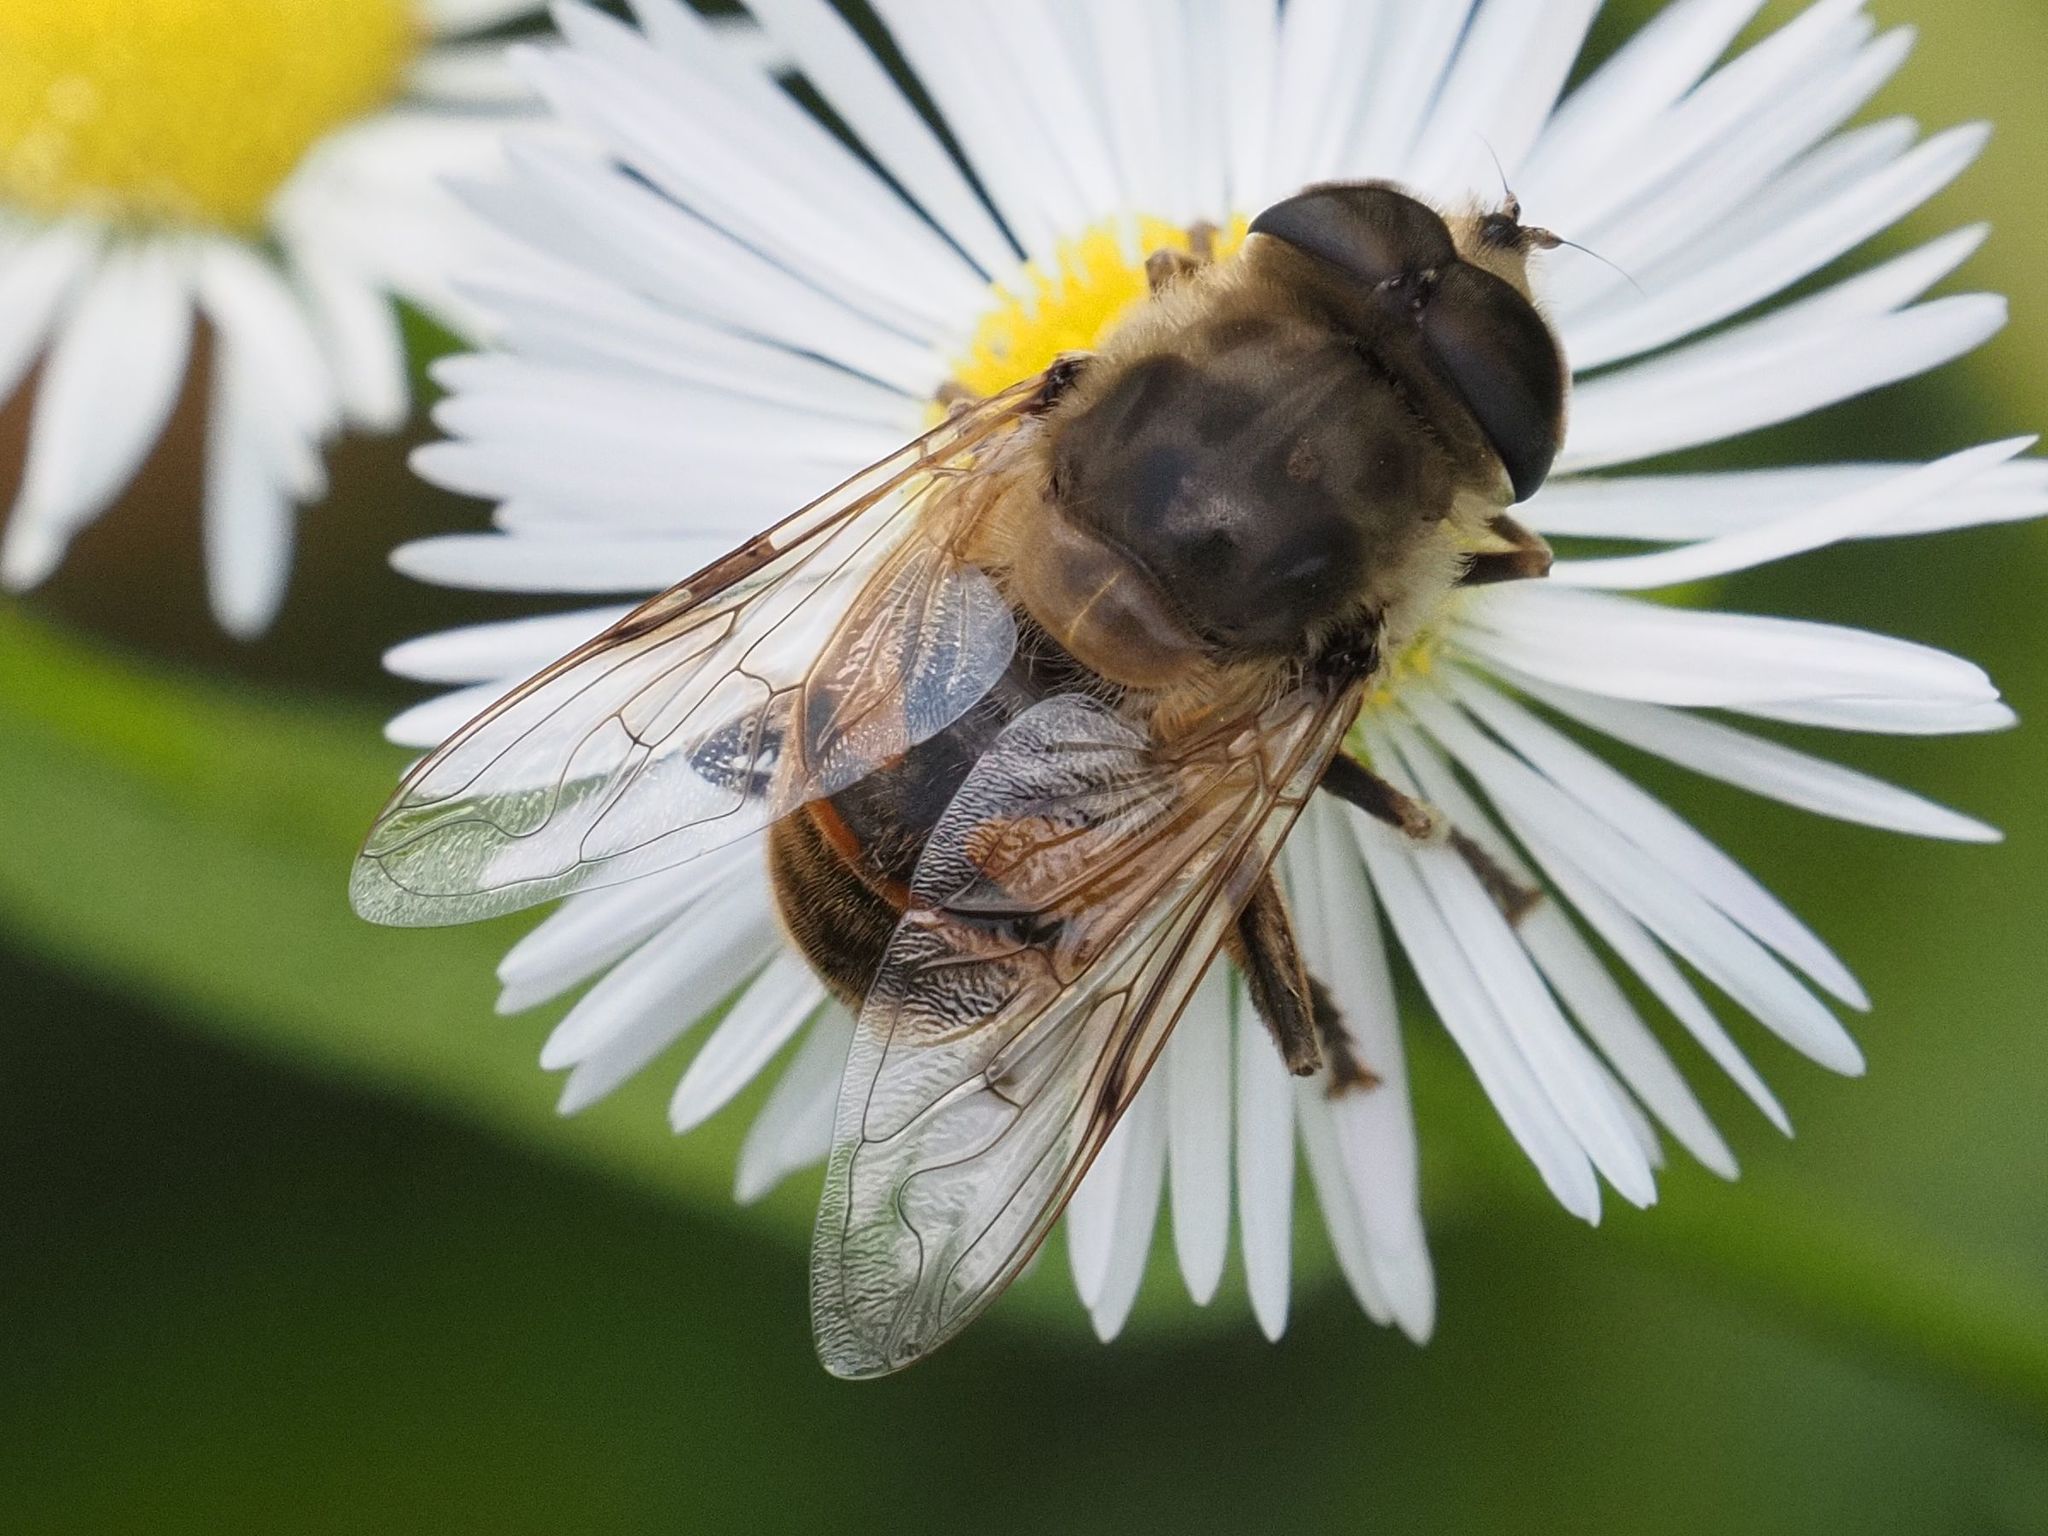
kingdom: Animalia
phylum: Arthropoda
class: Insecta
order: Diptera
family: Syrphidae
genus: Eristalis
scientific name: Eristalis tenax
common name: Drone fly
